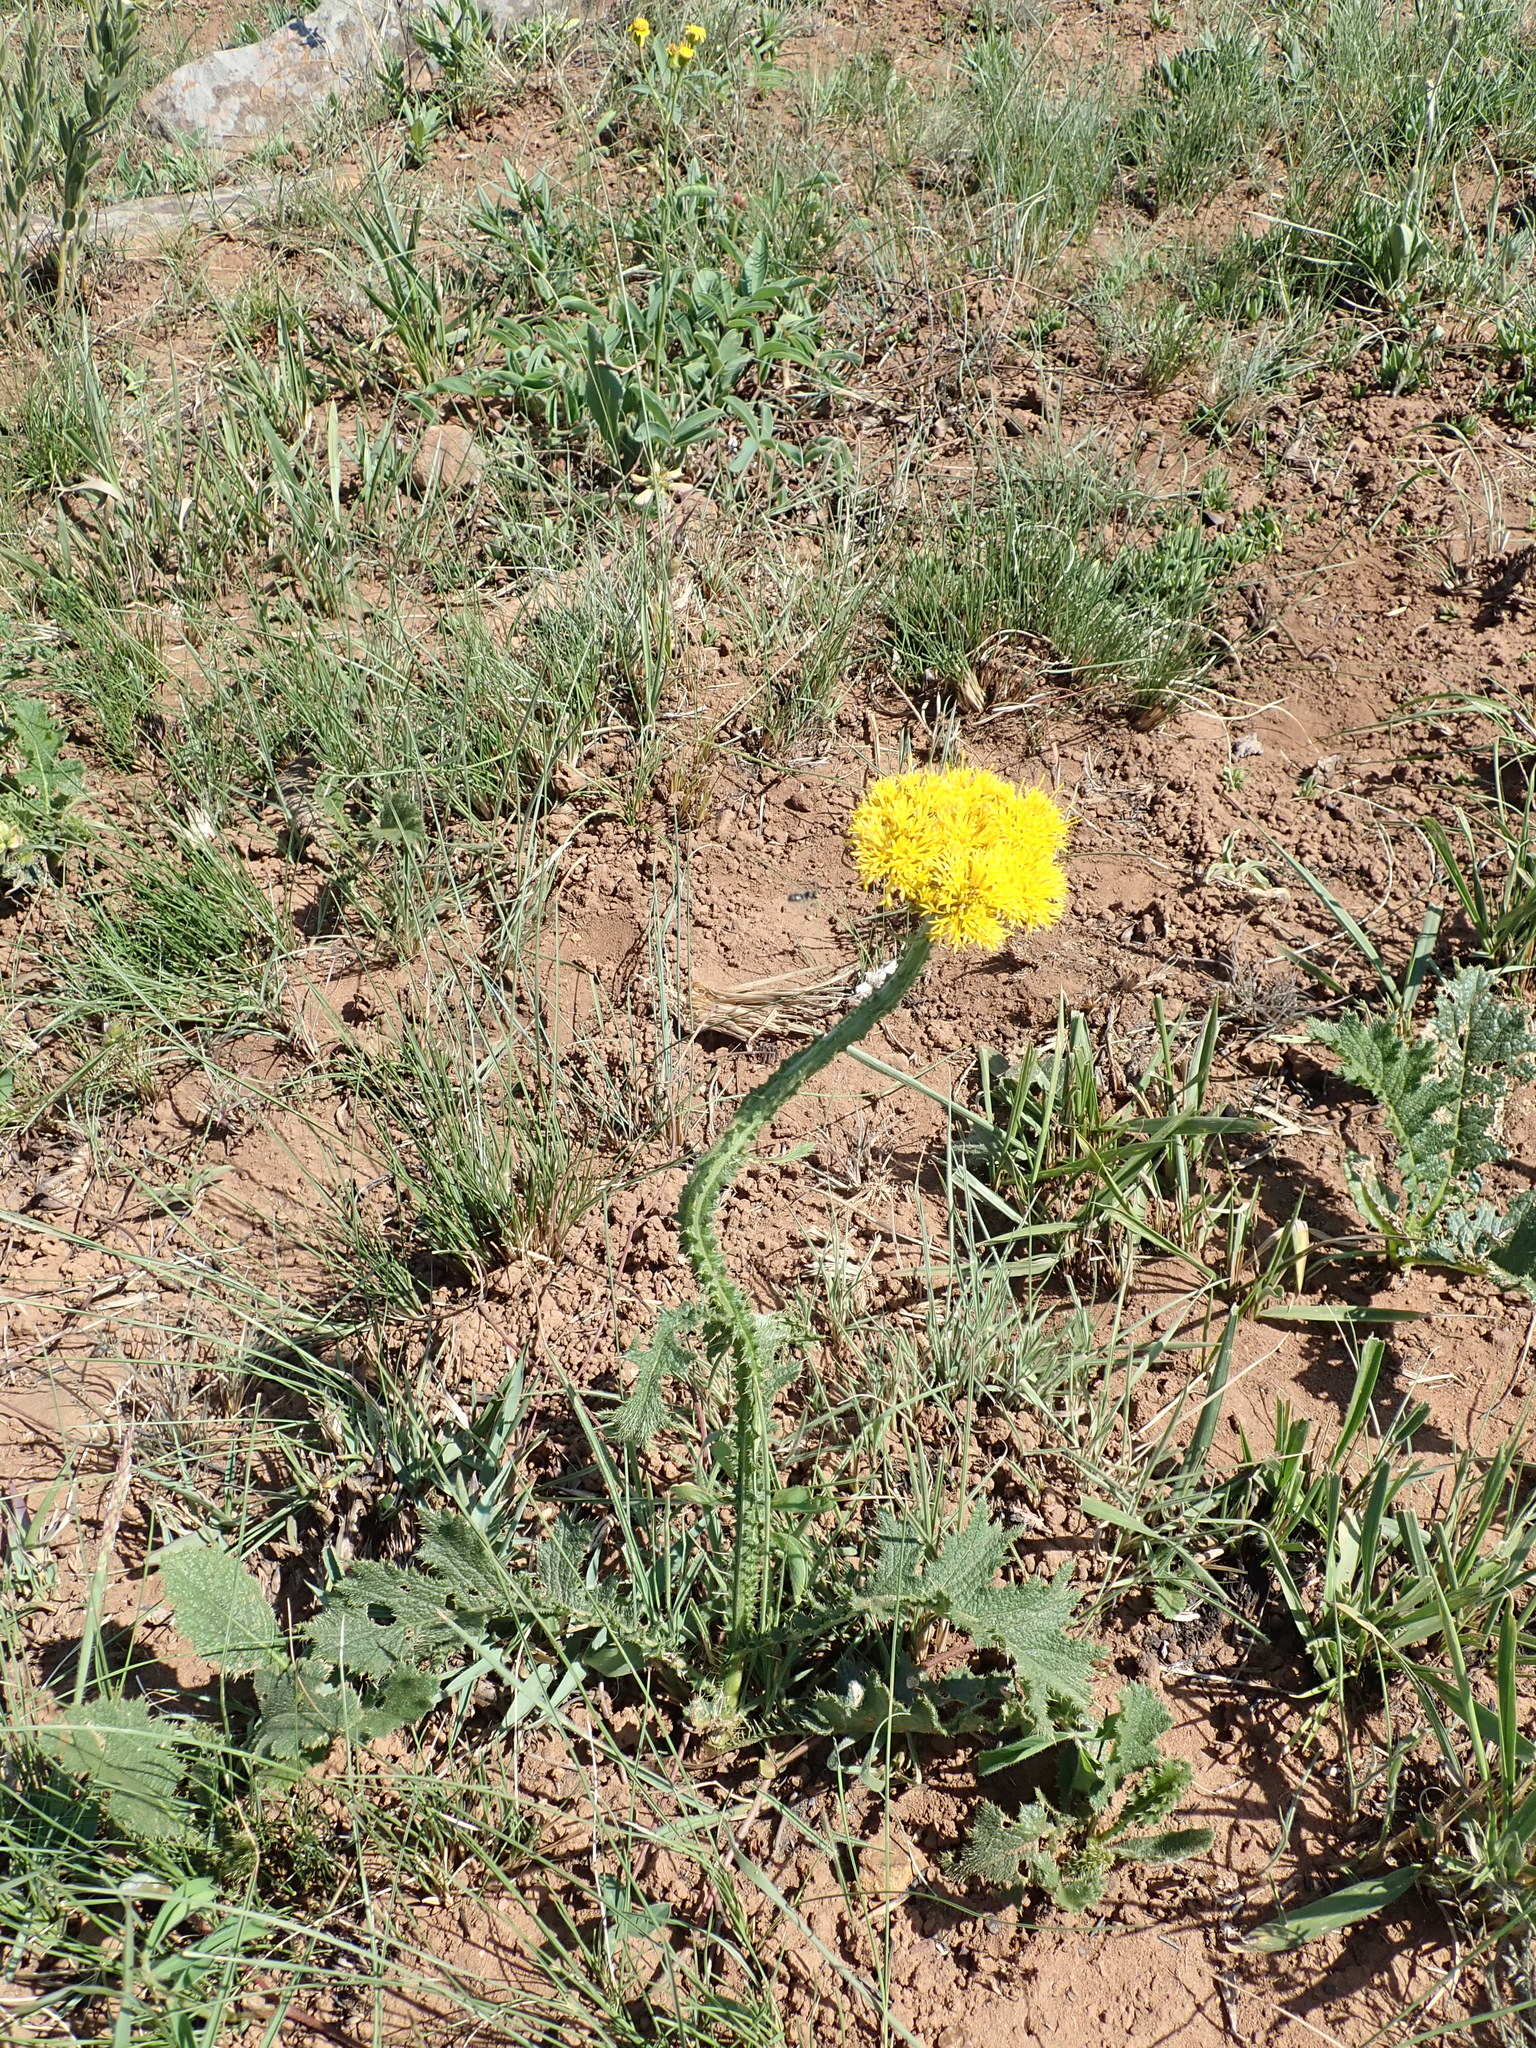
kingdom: Plantae
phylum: Tracheophyta
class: Magnoliopsida
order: Asterales
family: Asteraceae
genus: Berkheya
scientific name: Berkheya umbellata
